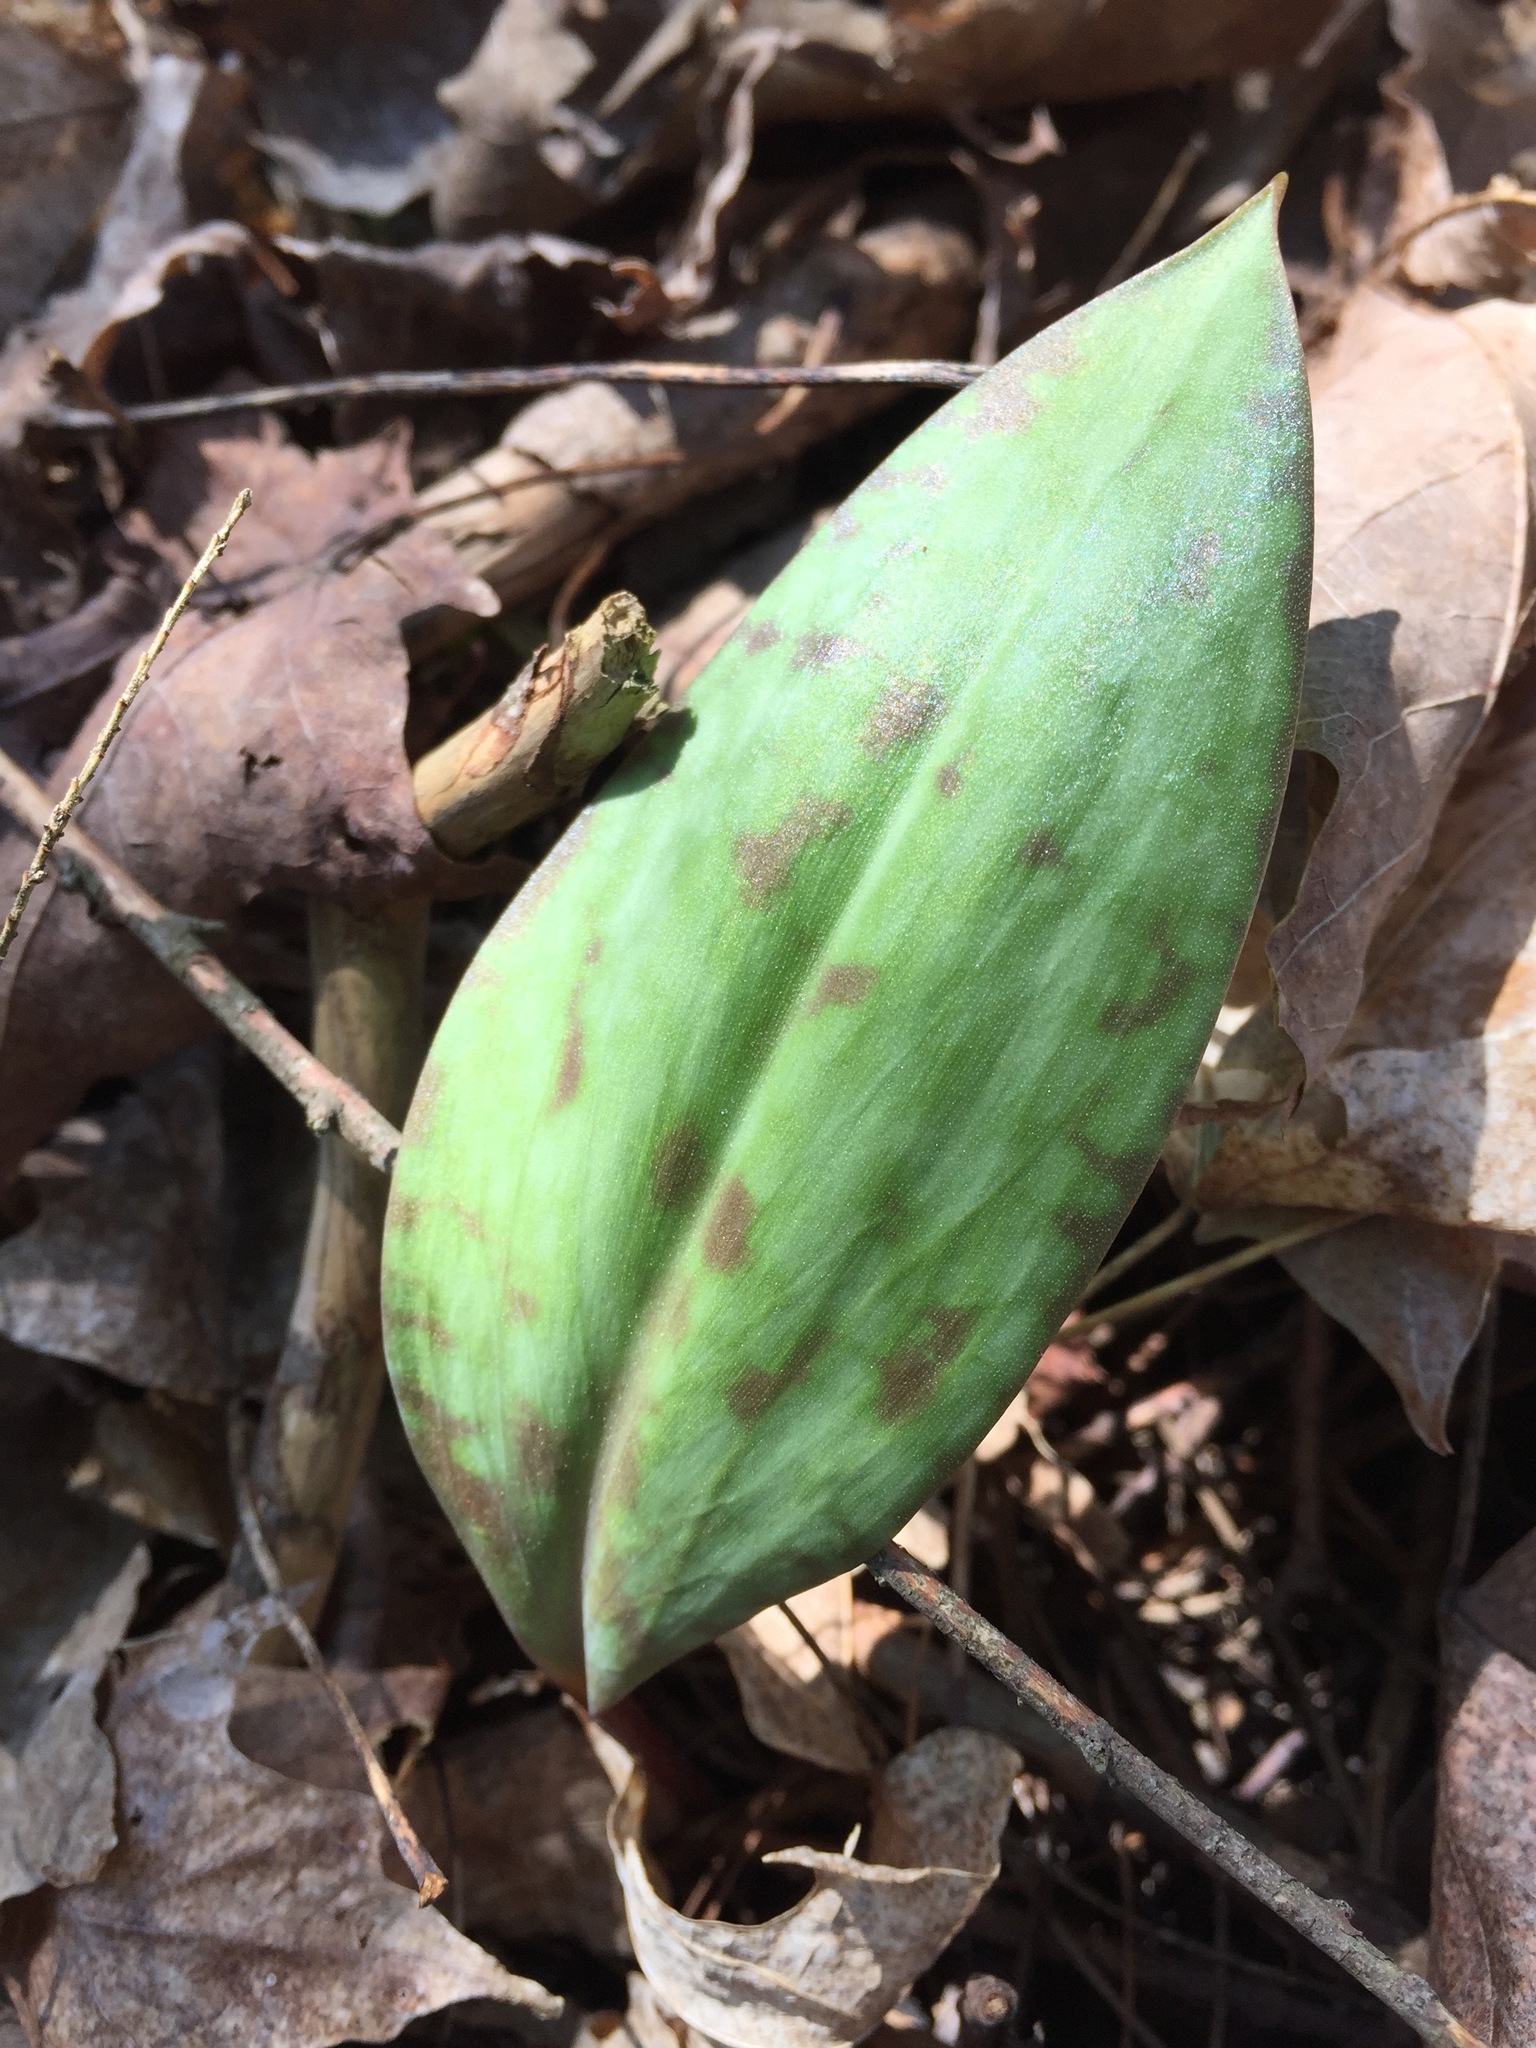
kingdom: Plantae
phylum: Tracheophyta
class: Liliopsida
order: Liliales
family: Liliaceae
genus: Erythronium
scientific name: Erythronium americanum
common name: Yellow adder's-tongue
